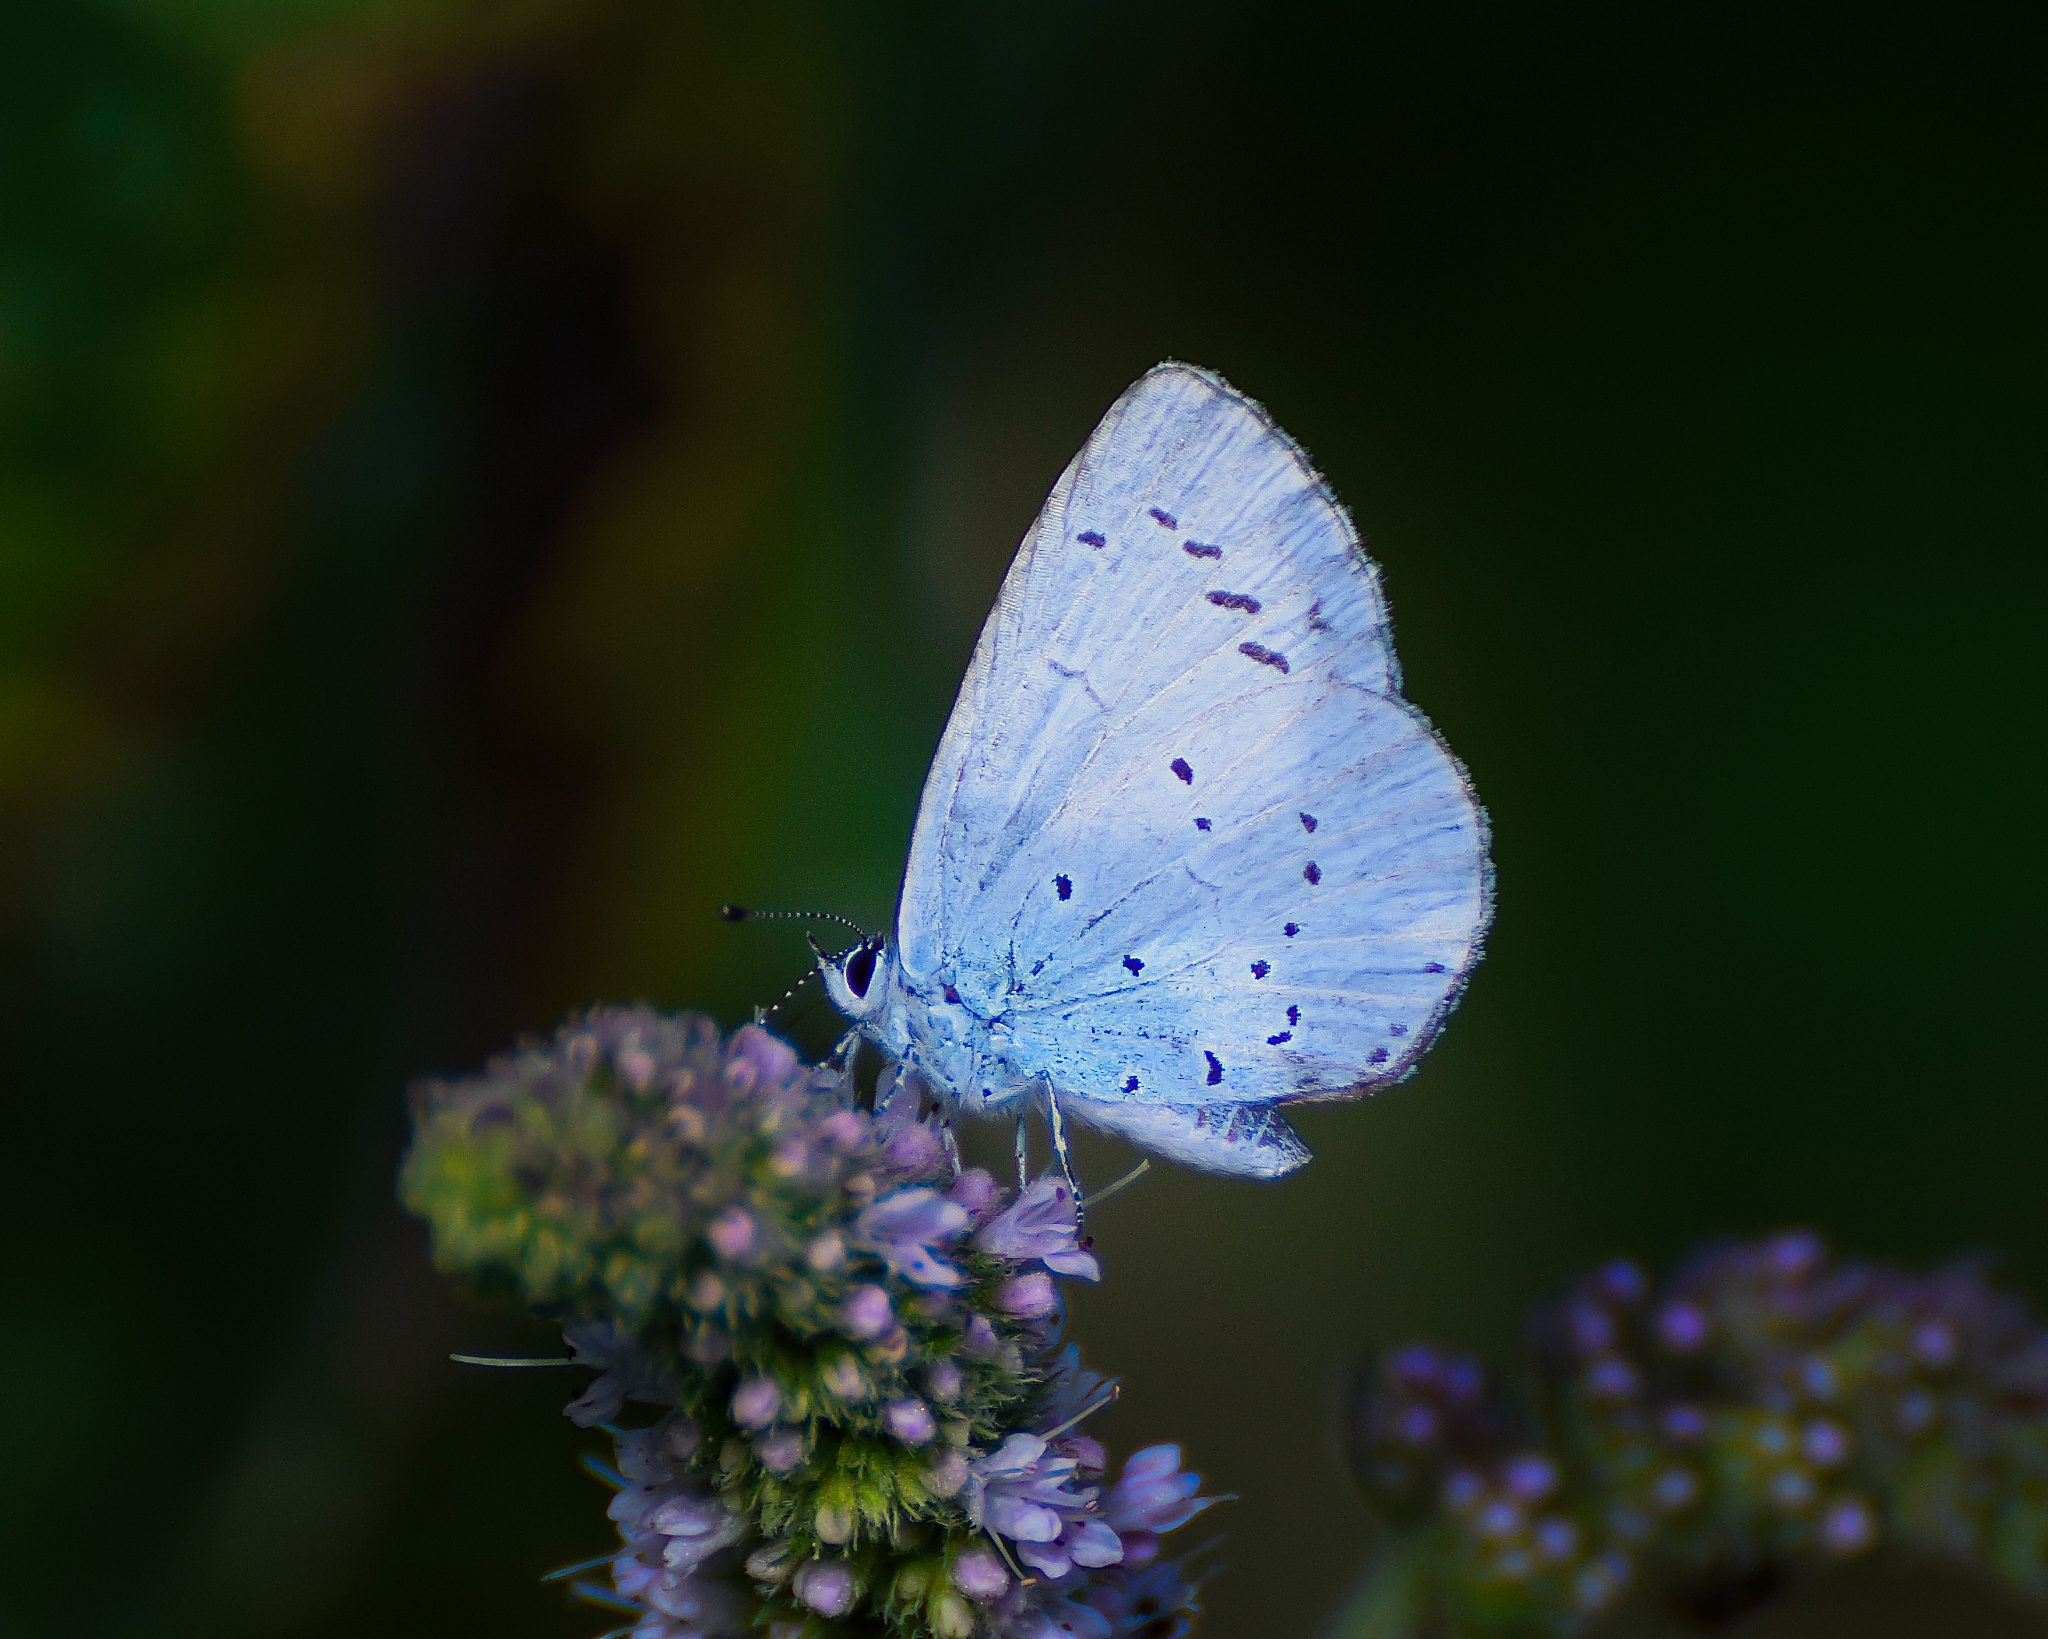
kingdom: Animalia
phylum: Arthropoda
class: Insecta
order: Lepidoptera
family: Lycaenidae
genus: Celastrina
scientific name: Celastrina argiolus
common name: Holly blue
